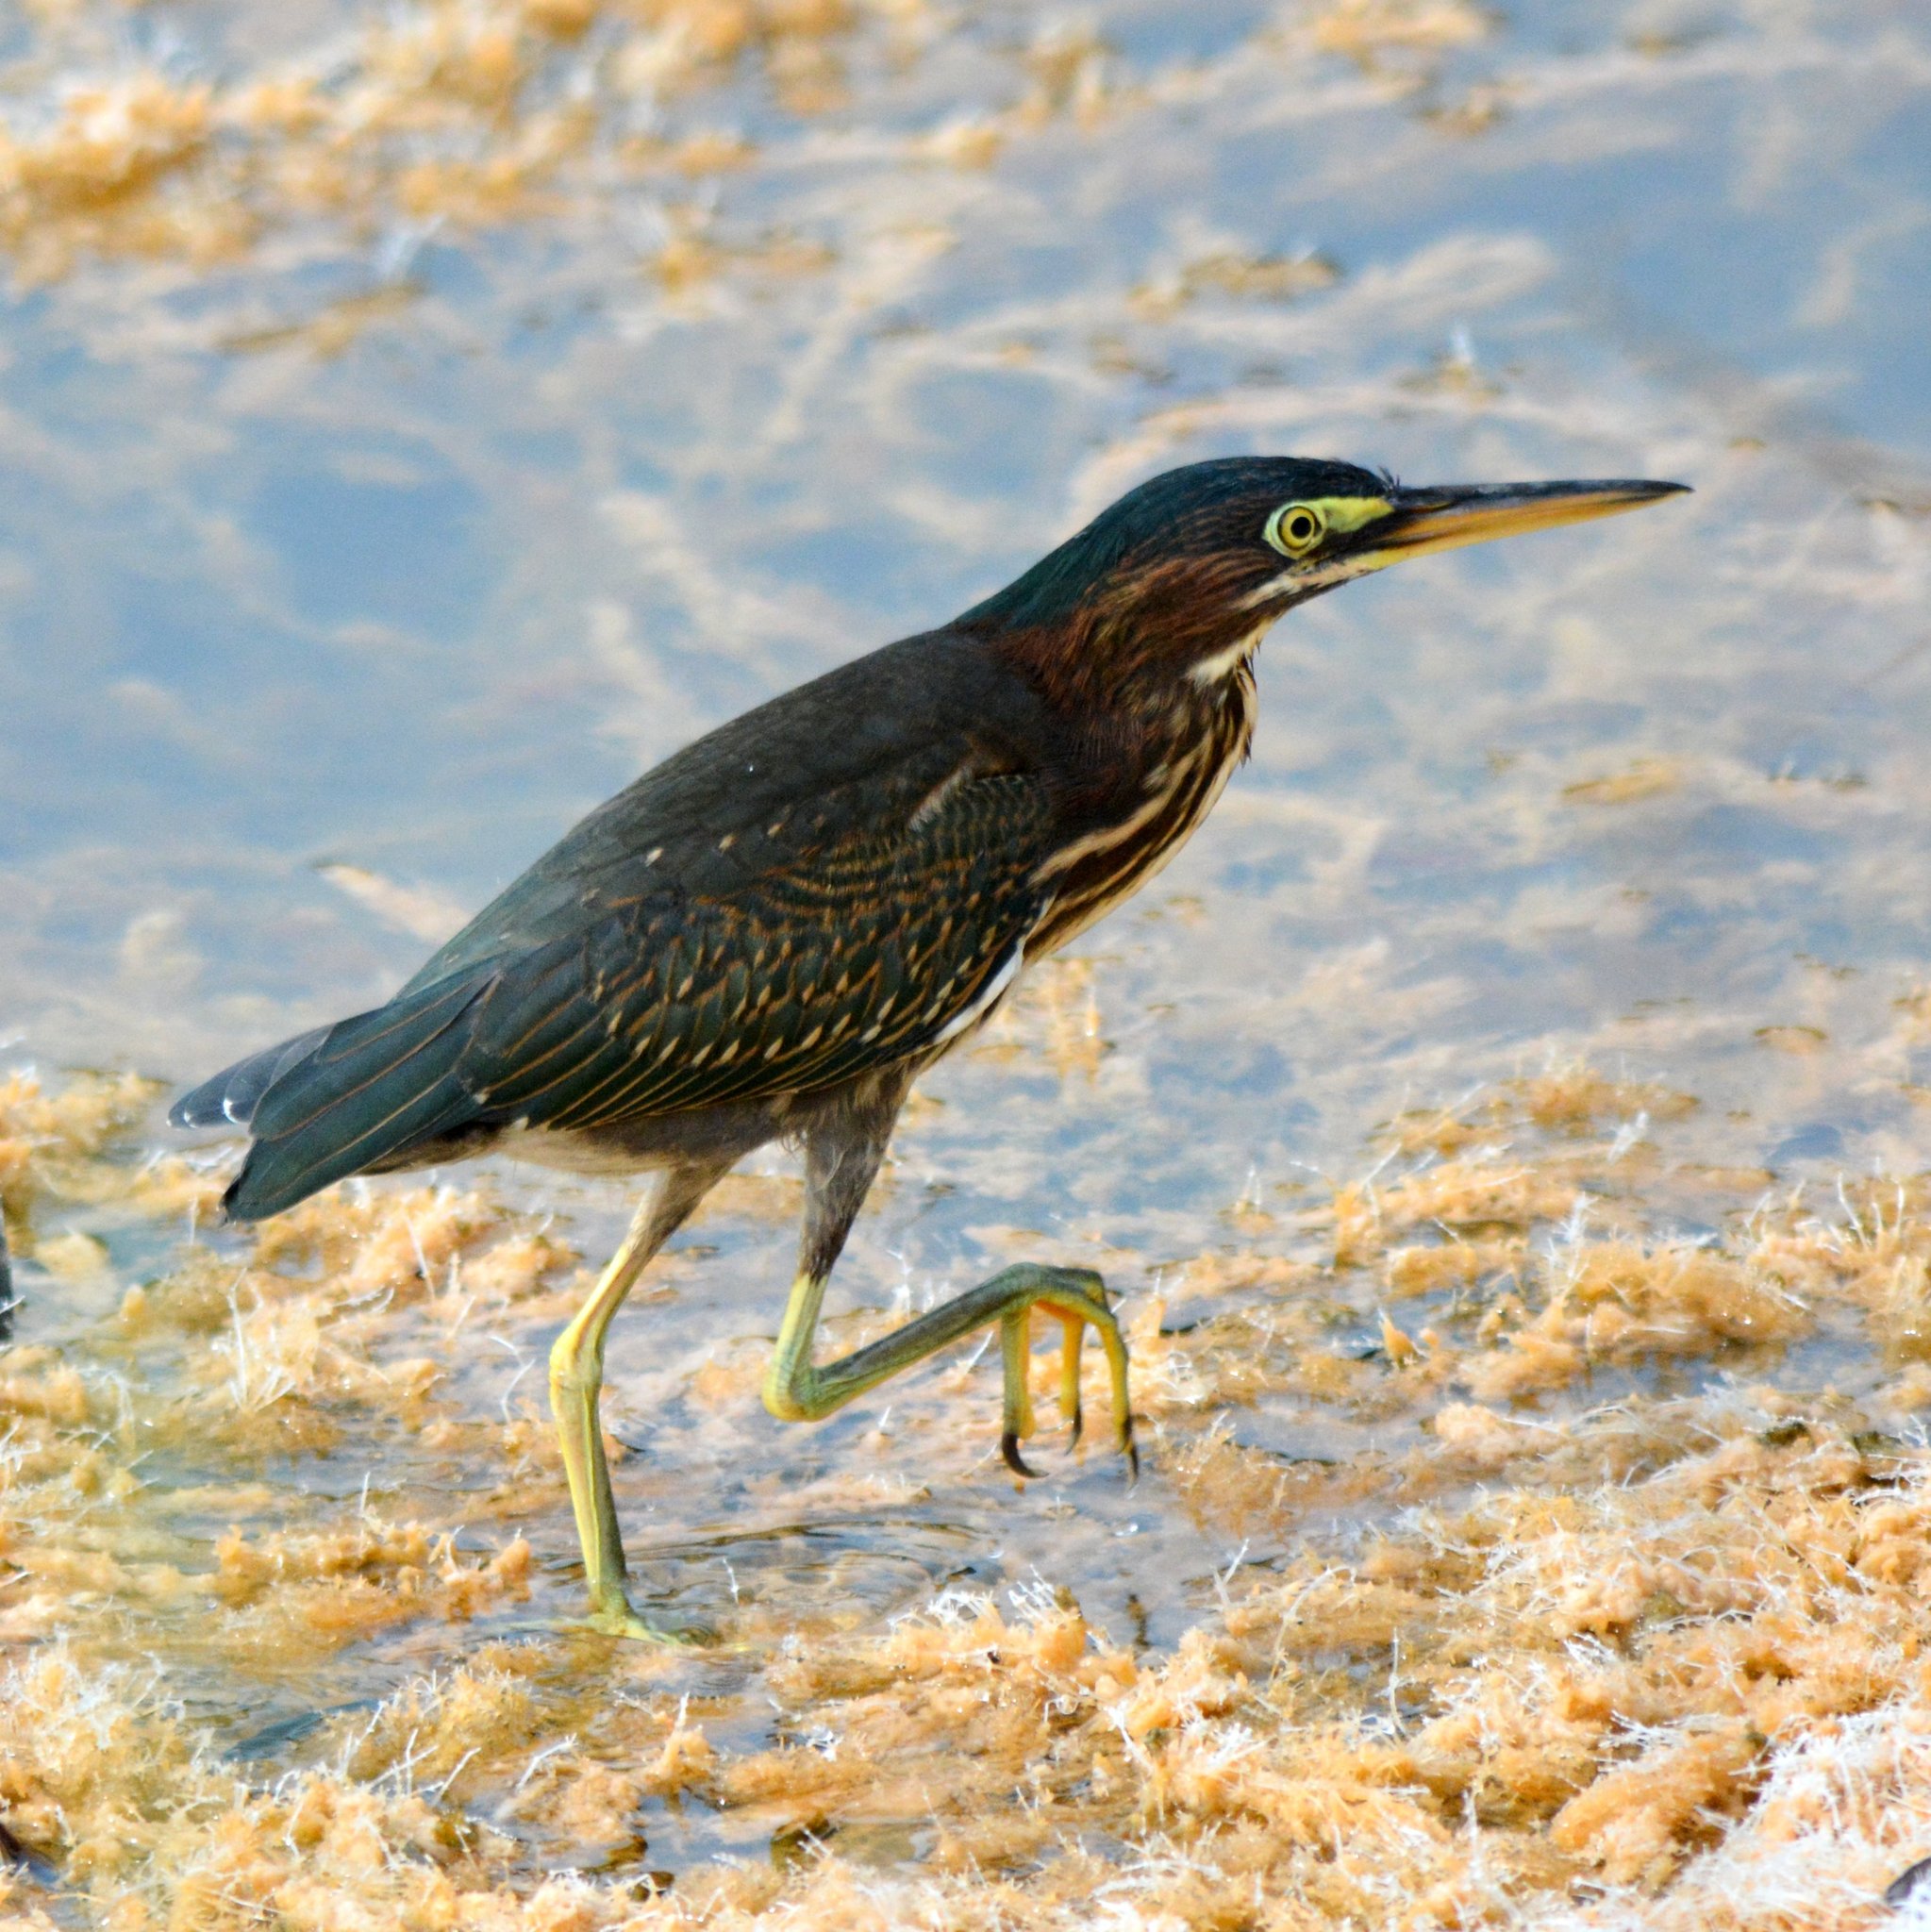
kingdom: Animalia
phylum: Chordata
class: Aves
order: Pelecaniformes
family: Ardeidae
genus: Butorides
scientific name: Butorides virescens
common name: Green heron
